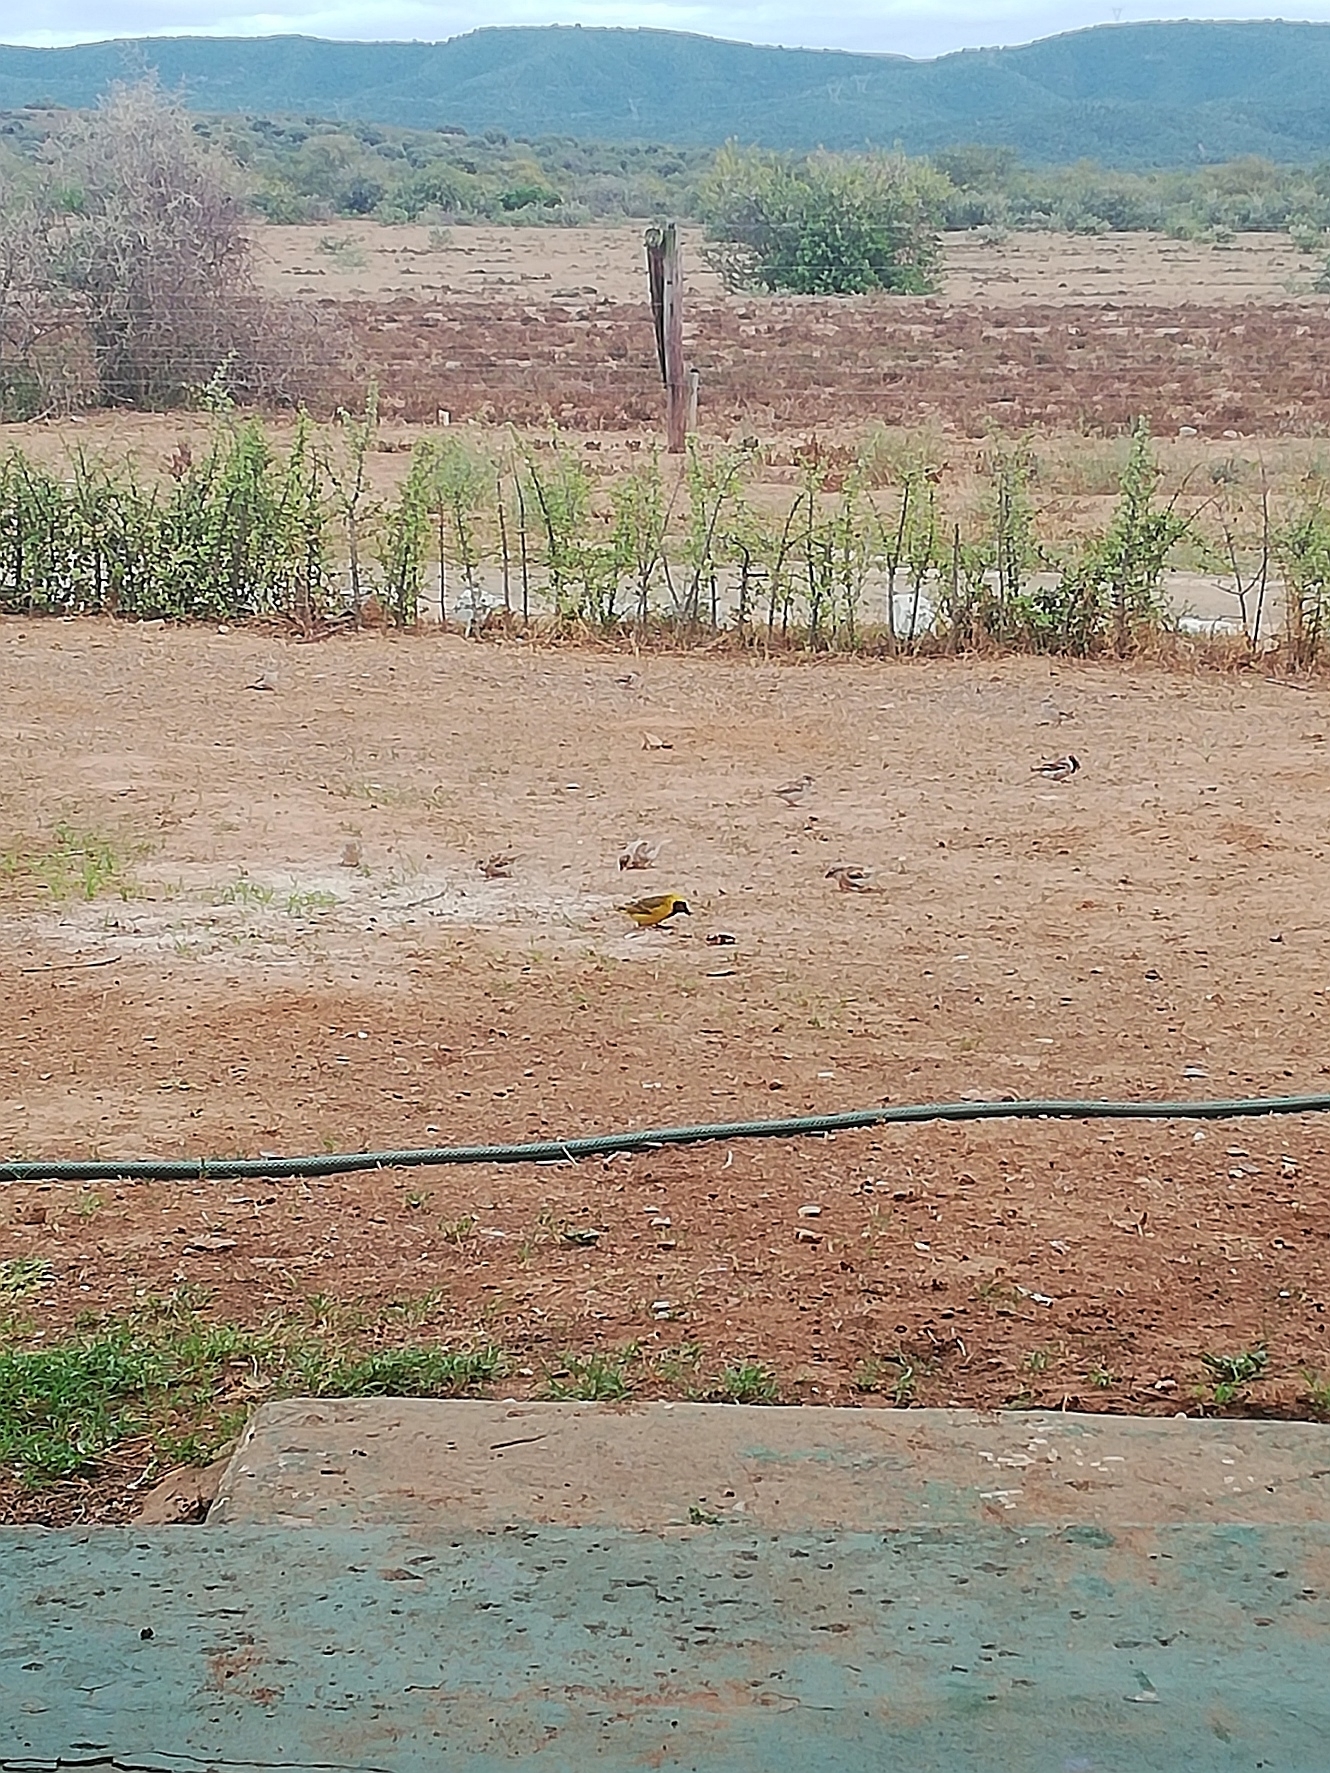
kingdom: Animalia
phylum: Chordata
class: Aves
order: Passeriformes
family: Ploceidae
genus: Ploceus
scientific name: Ploceus velatus
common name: Southern masked weaver
